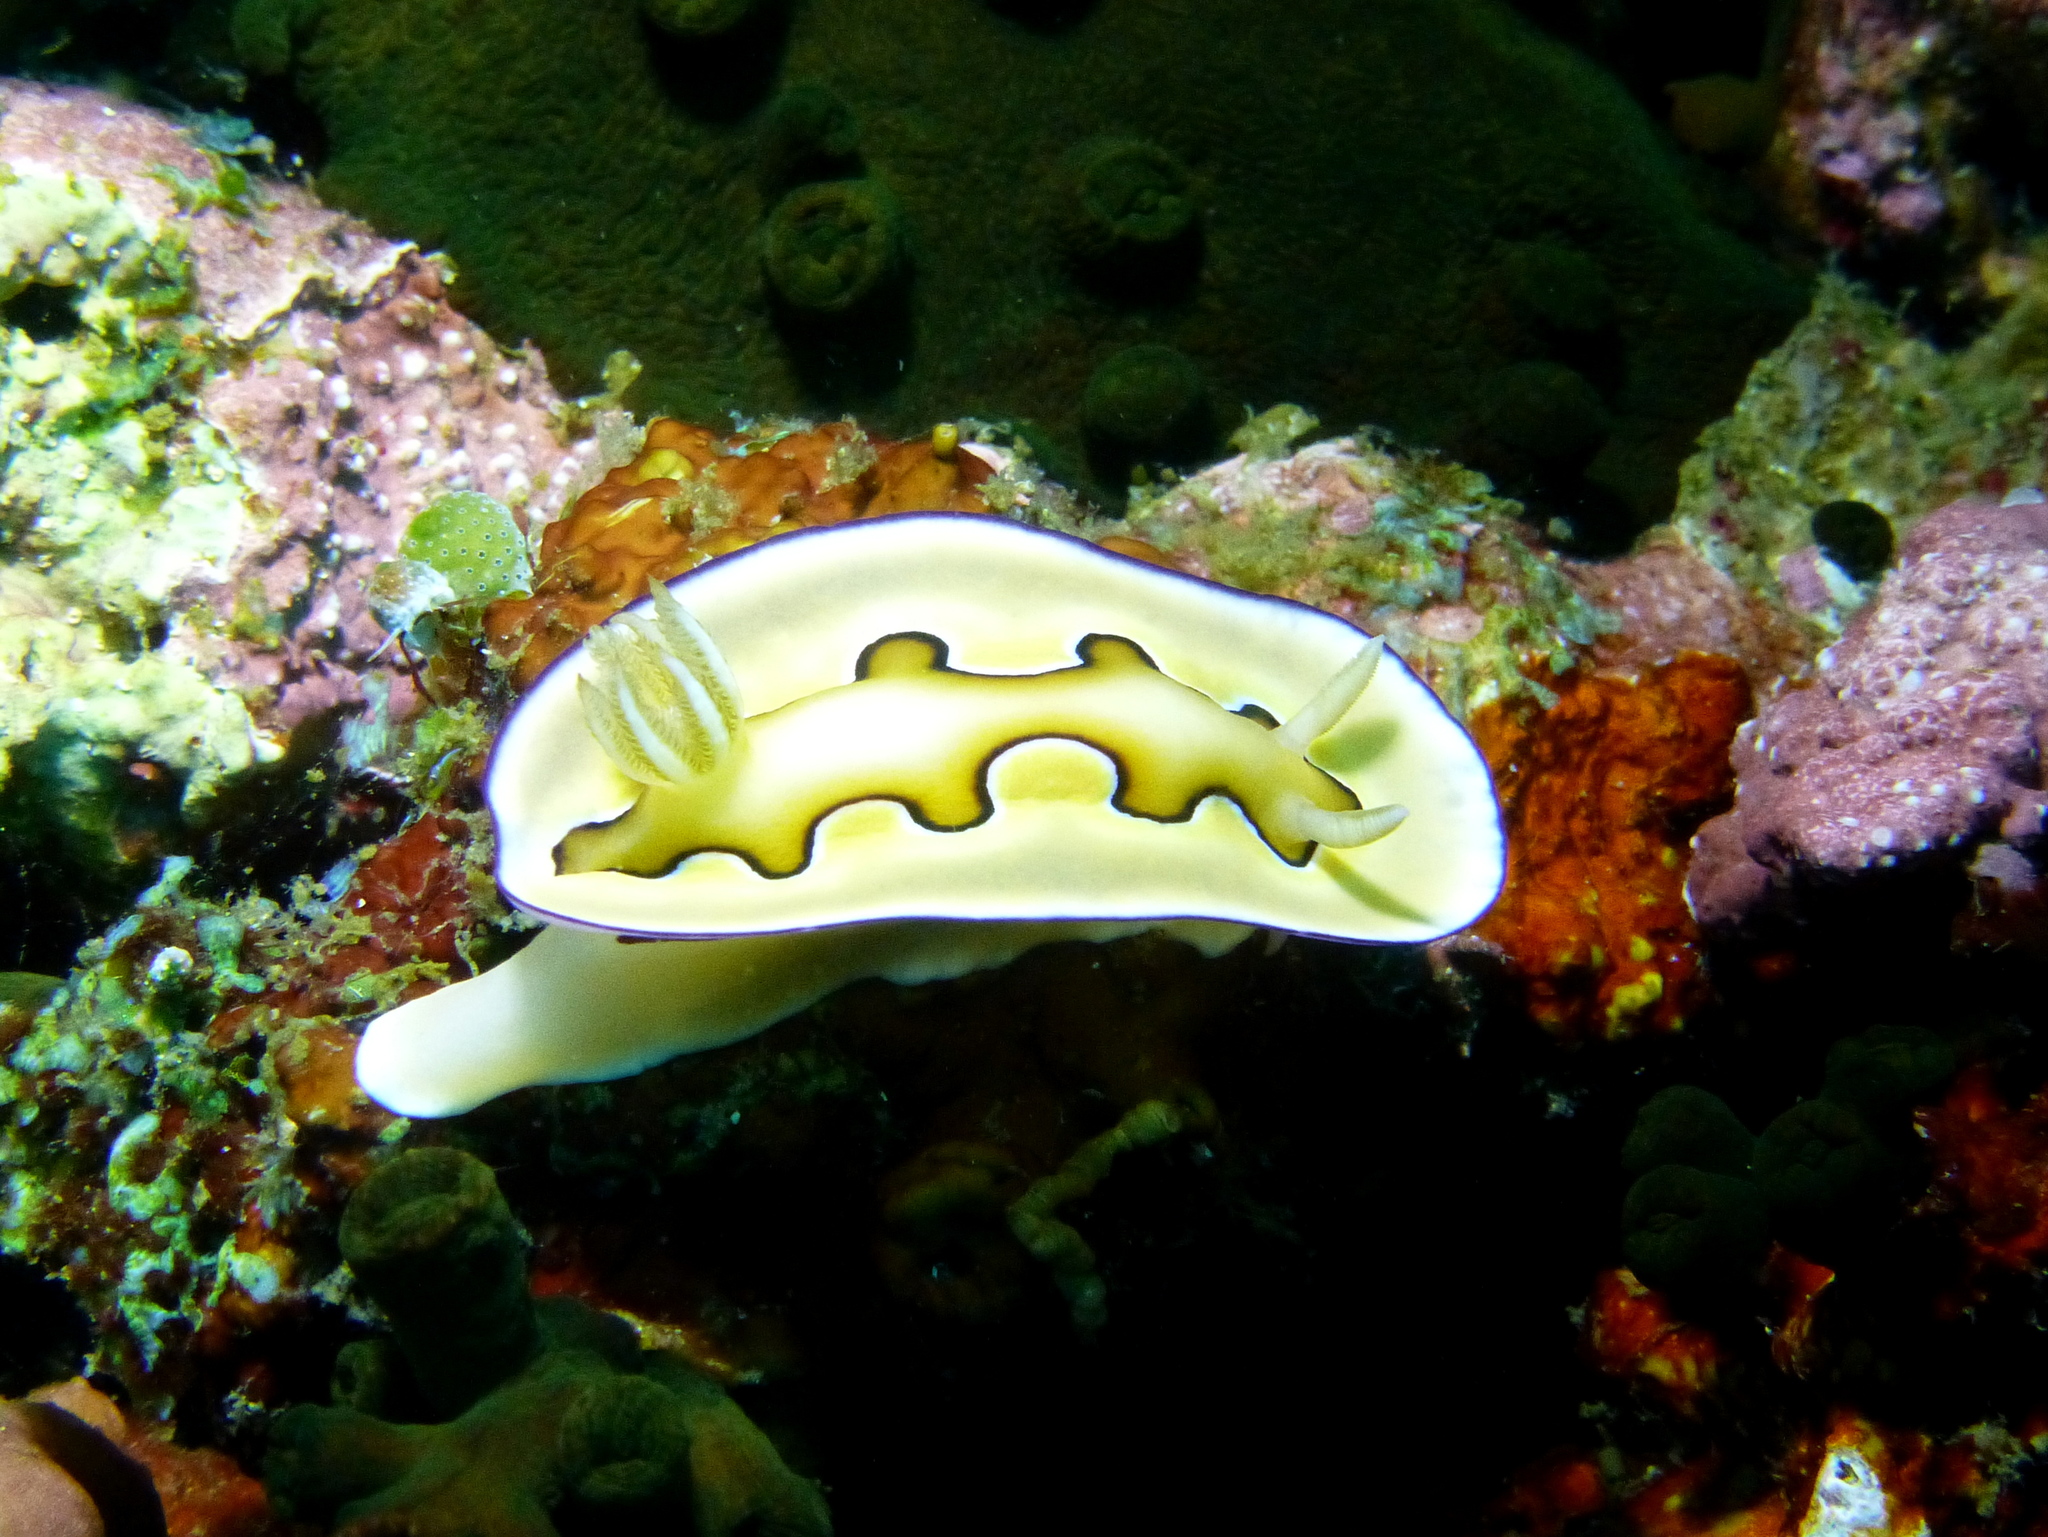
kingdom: Animalia
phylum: Mollusca
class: Gastropoda
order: Nudibranchia
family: Chromodorididae
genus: Goniobranchus
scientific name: Goniobranchus coi
